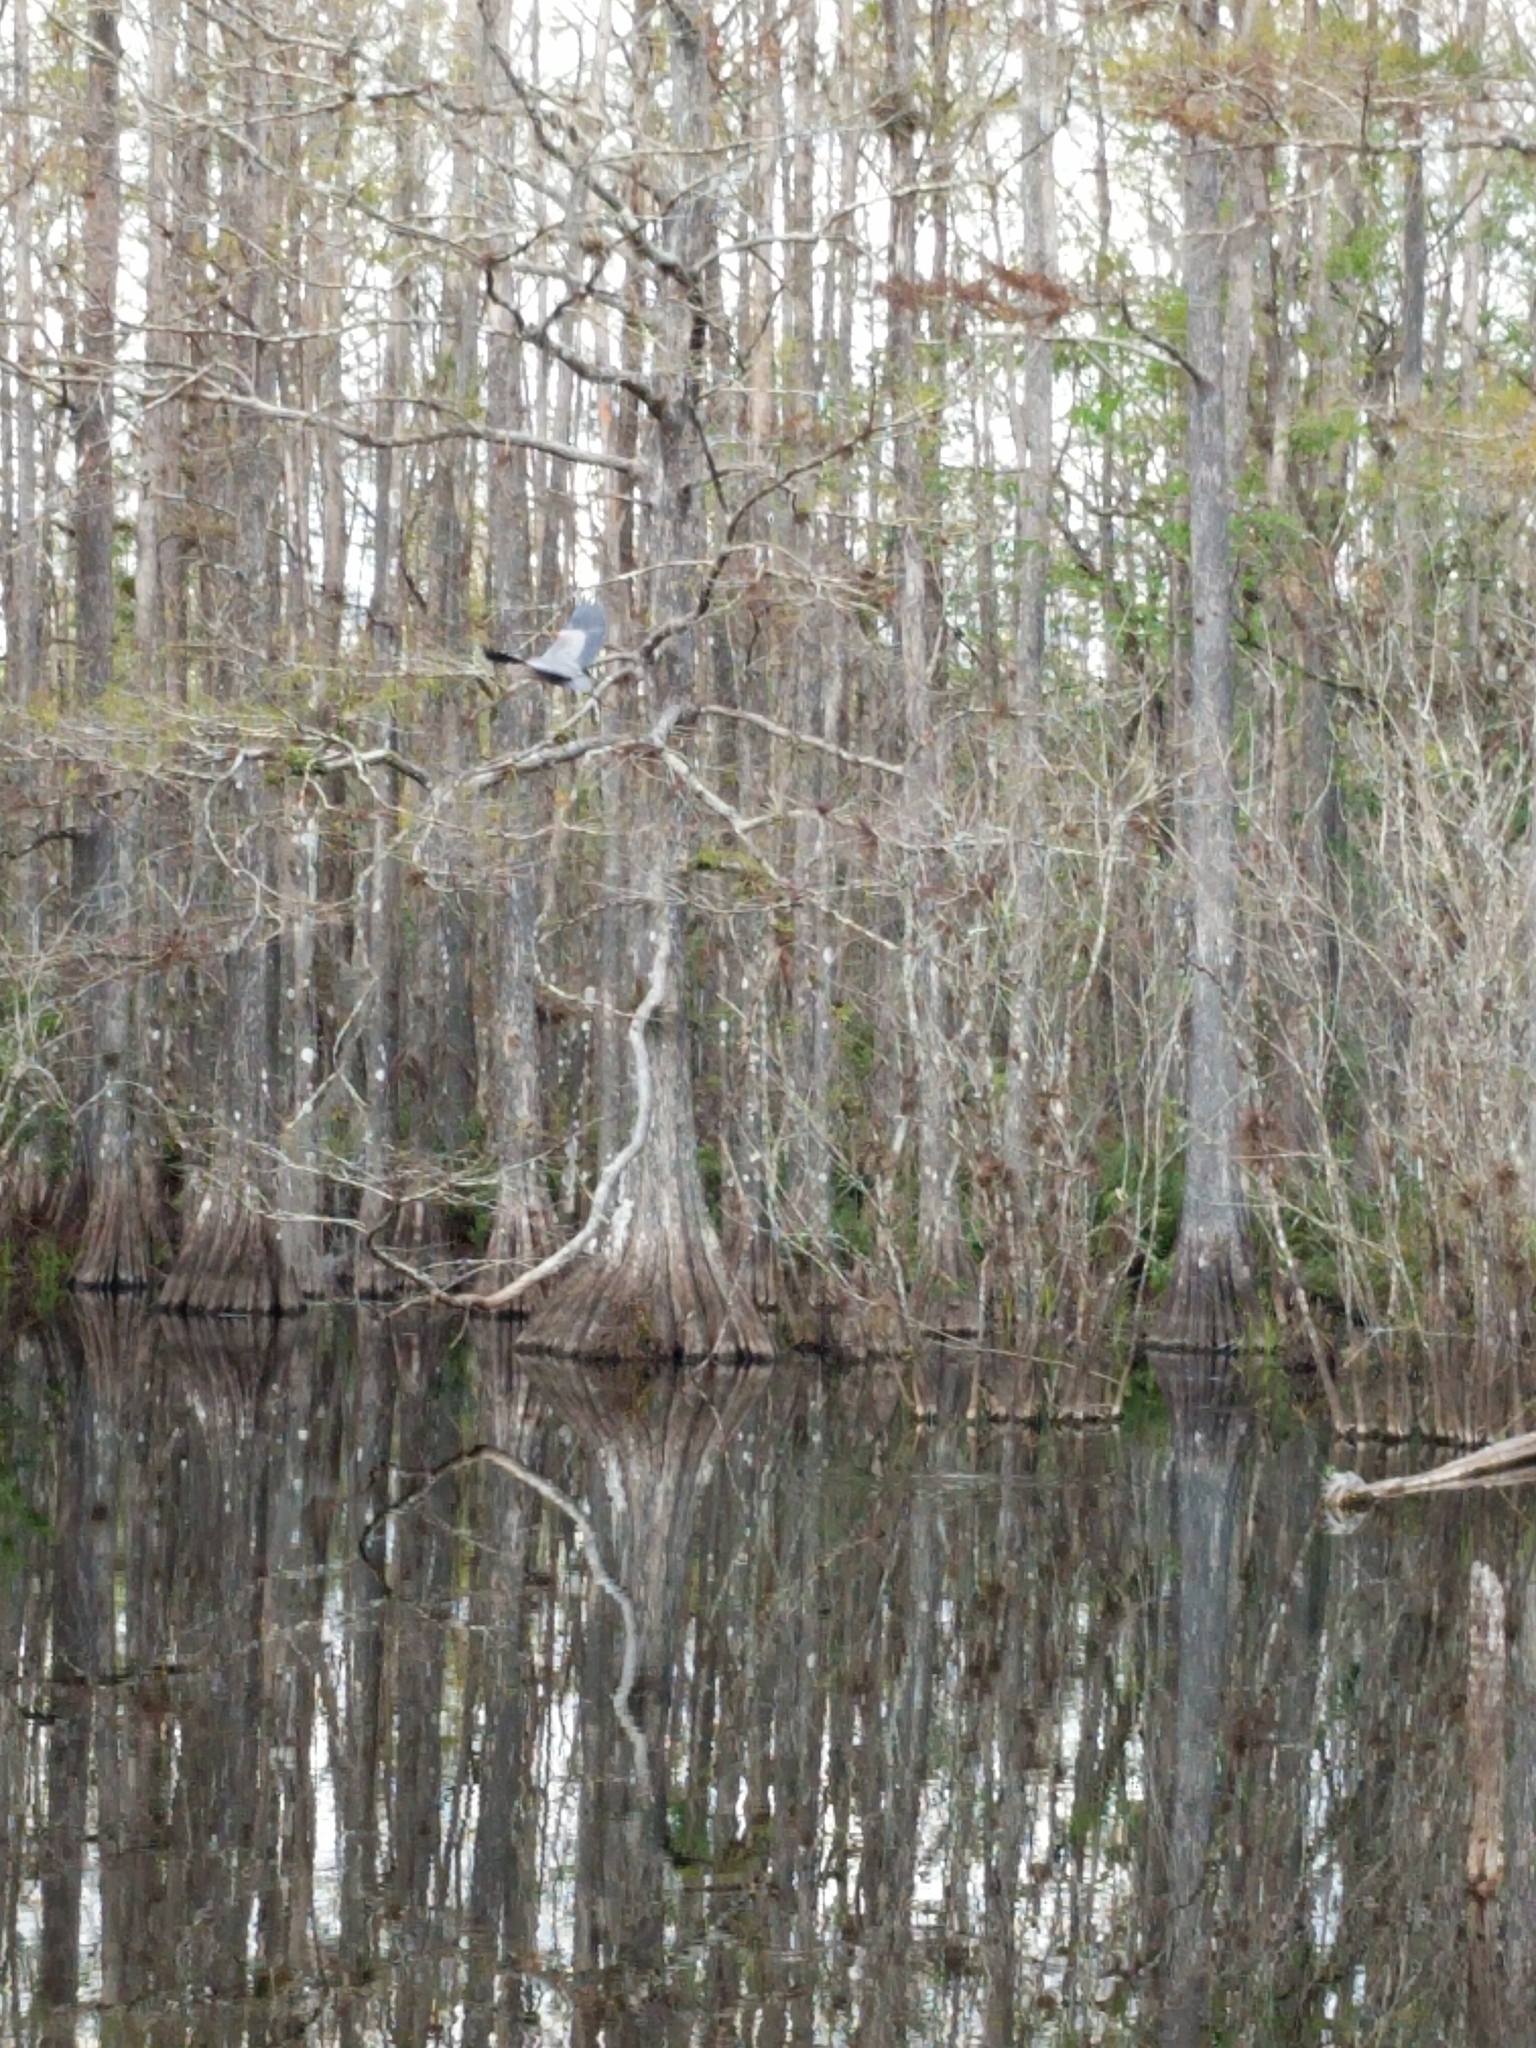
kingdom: Animalia
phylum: Chordata
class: Aves
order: Pelecaniformes
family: Ardeidae
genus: Ardea
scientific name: Ardea herodias
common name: Great blue heron
